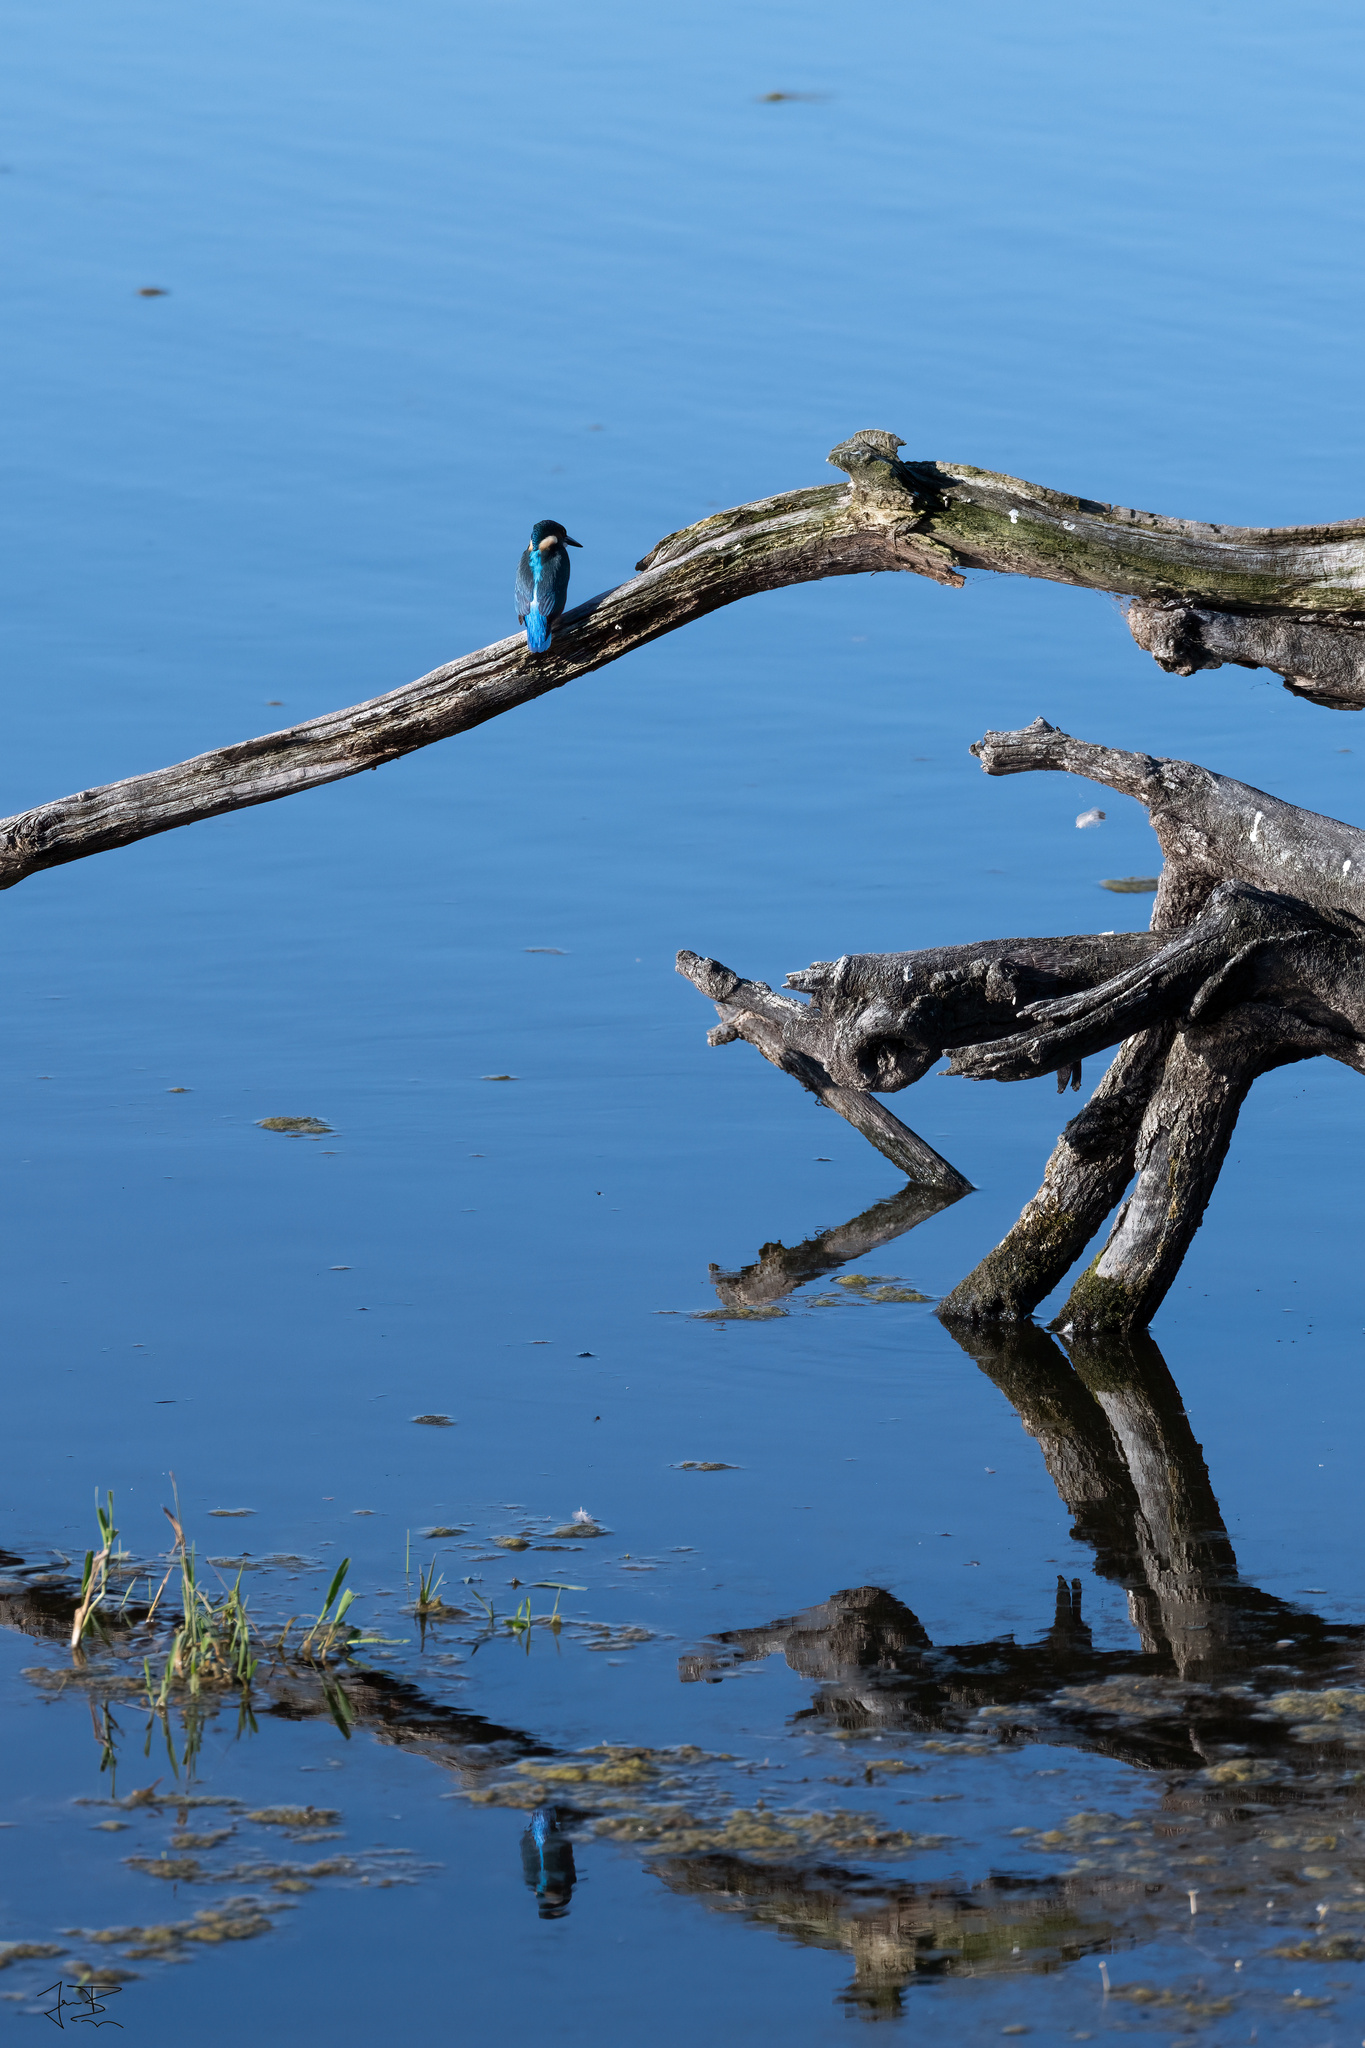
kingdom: Animalia
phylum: Chordata
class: Aves
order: Coraciiformes
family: Alcedinidae
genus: Alcedo
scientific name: Alcedo atthis
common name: Common kingfisher
